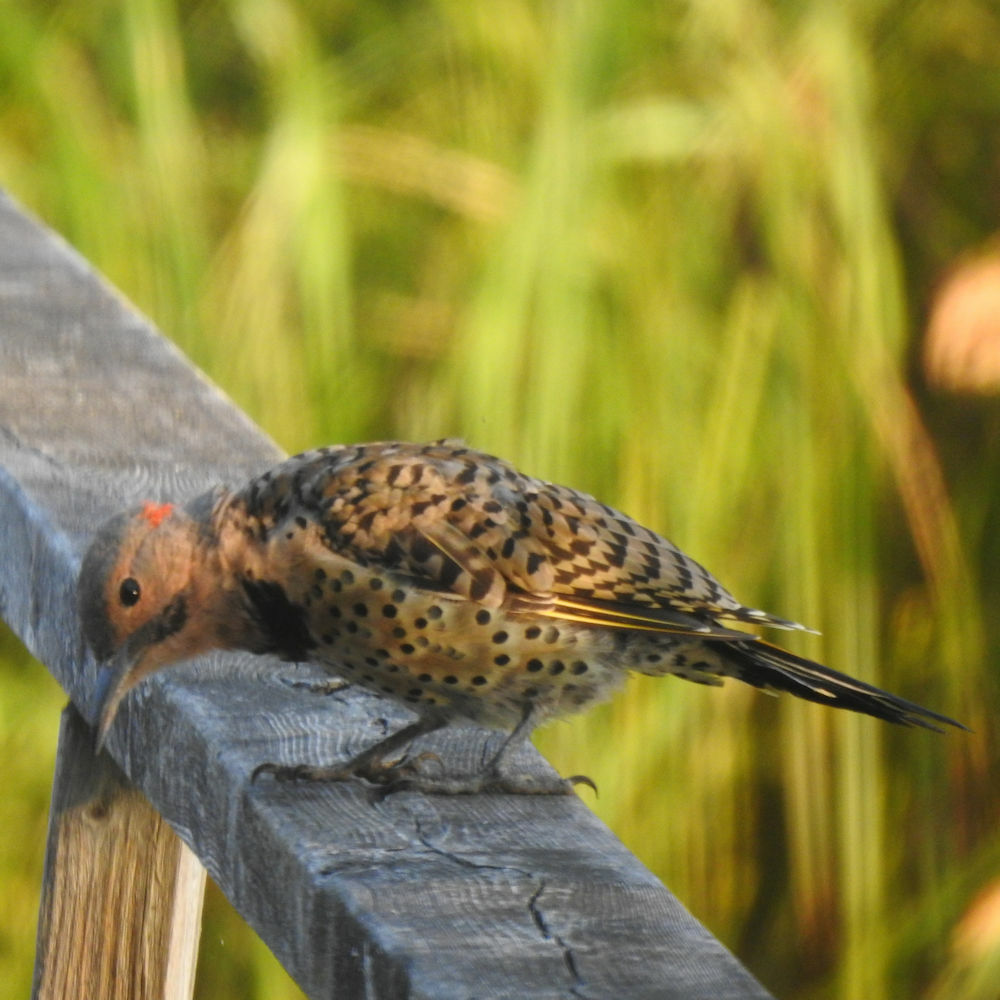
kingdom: Animalia
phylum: Chordata
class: Aves
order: Piciformes
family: Picidae
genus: Colaptes
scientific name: Colaptes auratus
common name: Northern flicker
